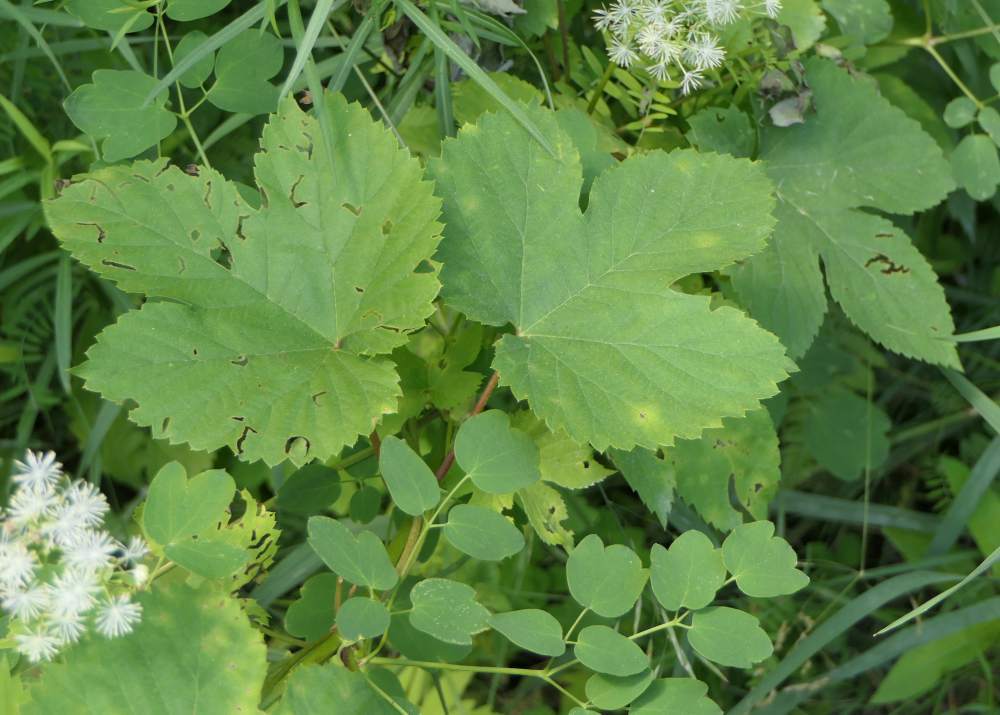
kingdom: Plantae
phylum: Tracheophyta
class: Magnoliopsida
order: Rosales
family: Cannabaceae
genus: Humulus
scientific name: Humulus lupulus
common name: Hop
